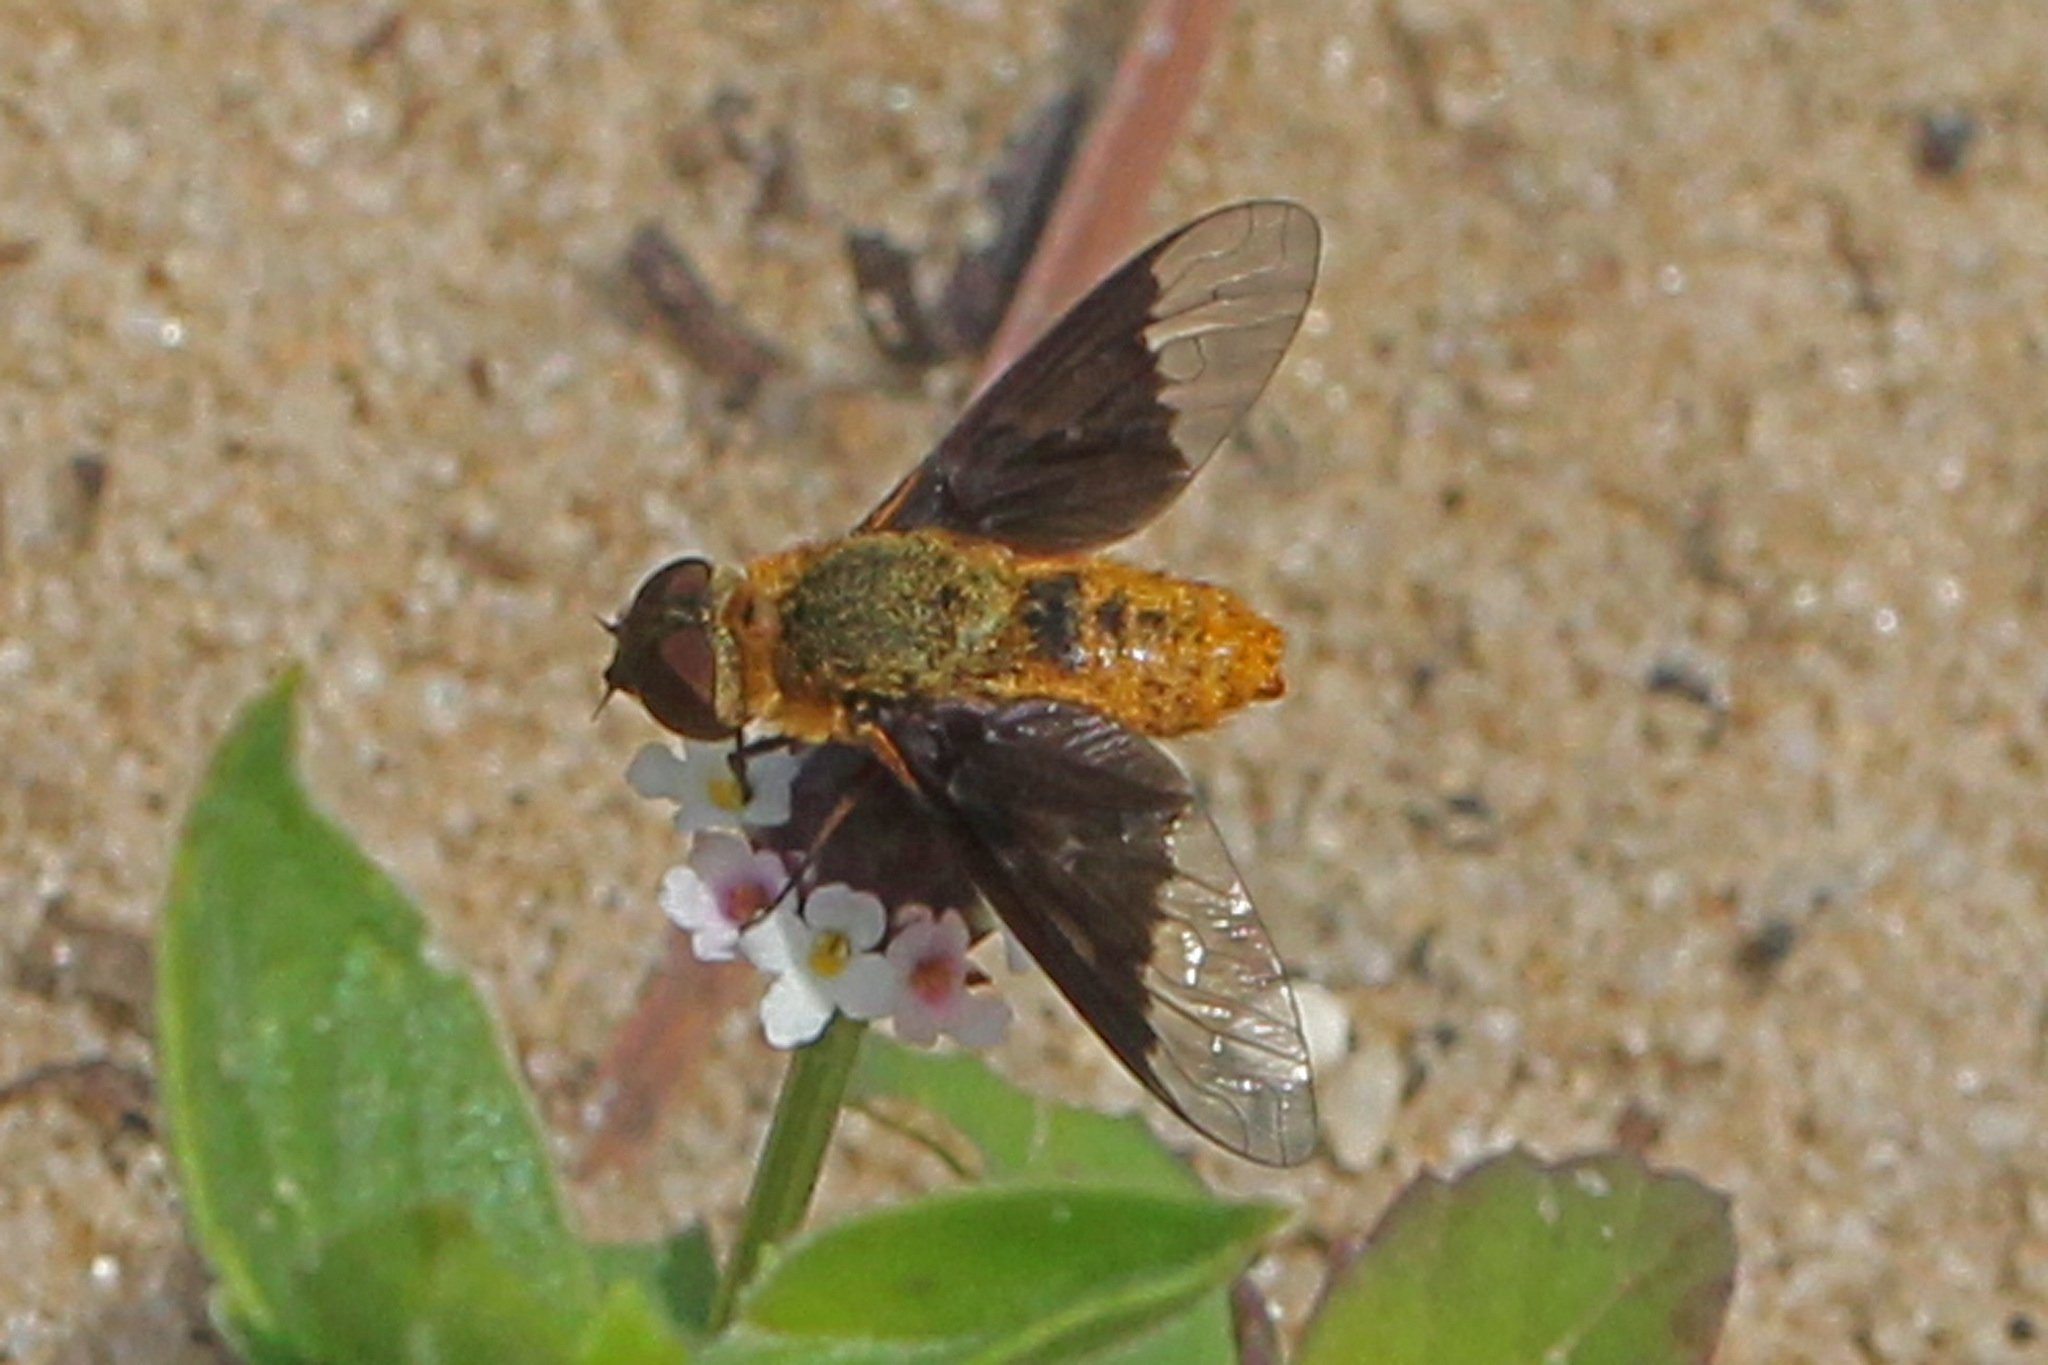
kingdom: Animalia
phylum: Arthropoda
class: Insecta
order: Diptera
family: Bombyliidae
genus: Chrysanthrax
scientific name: Chrysanthrax cypris
